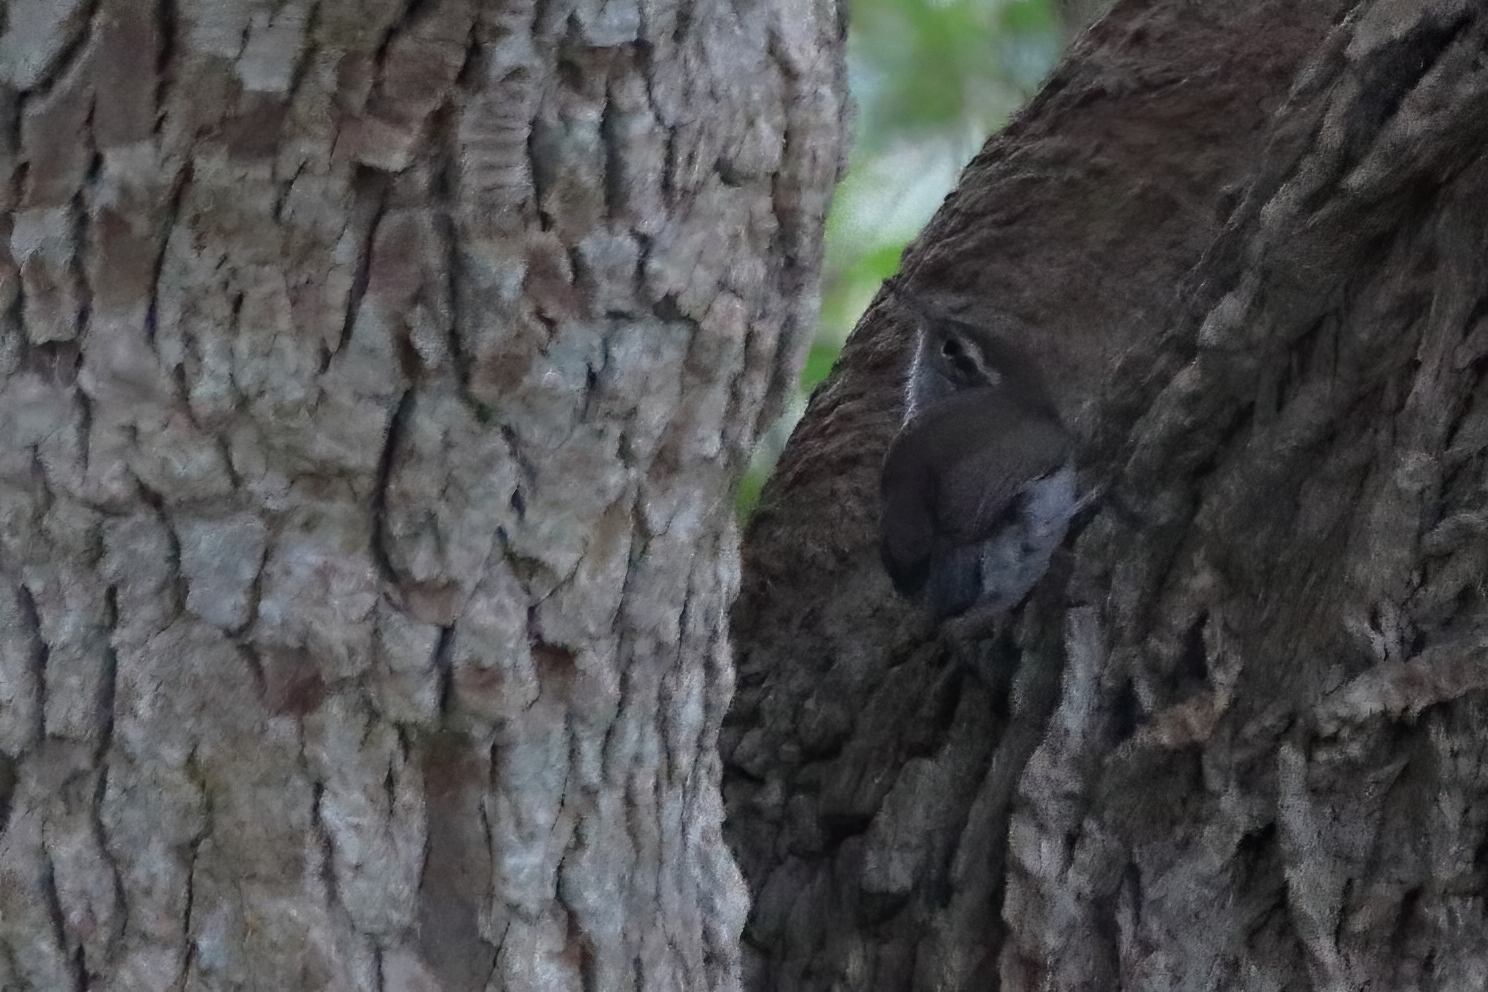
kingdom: Animalia
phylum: Chordata
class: Aves
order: Passeriformes
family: Troglodytidae
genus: Thryomanes
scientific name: Thryomanes bewickii
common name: Bewick's wren
